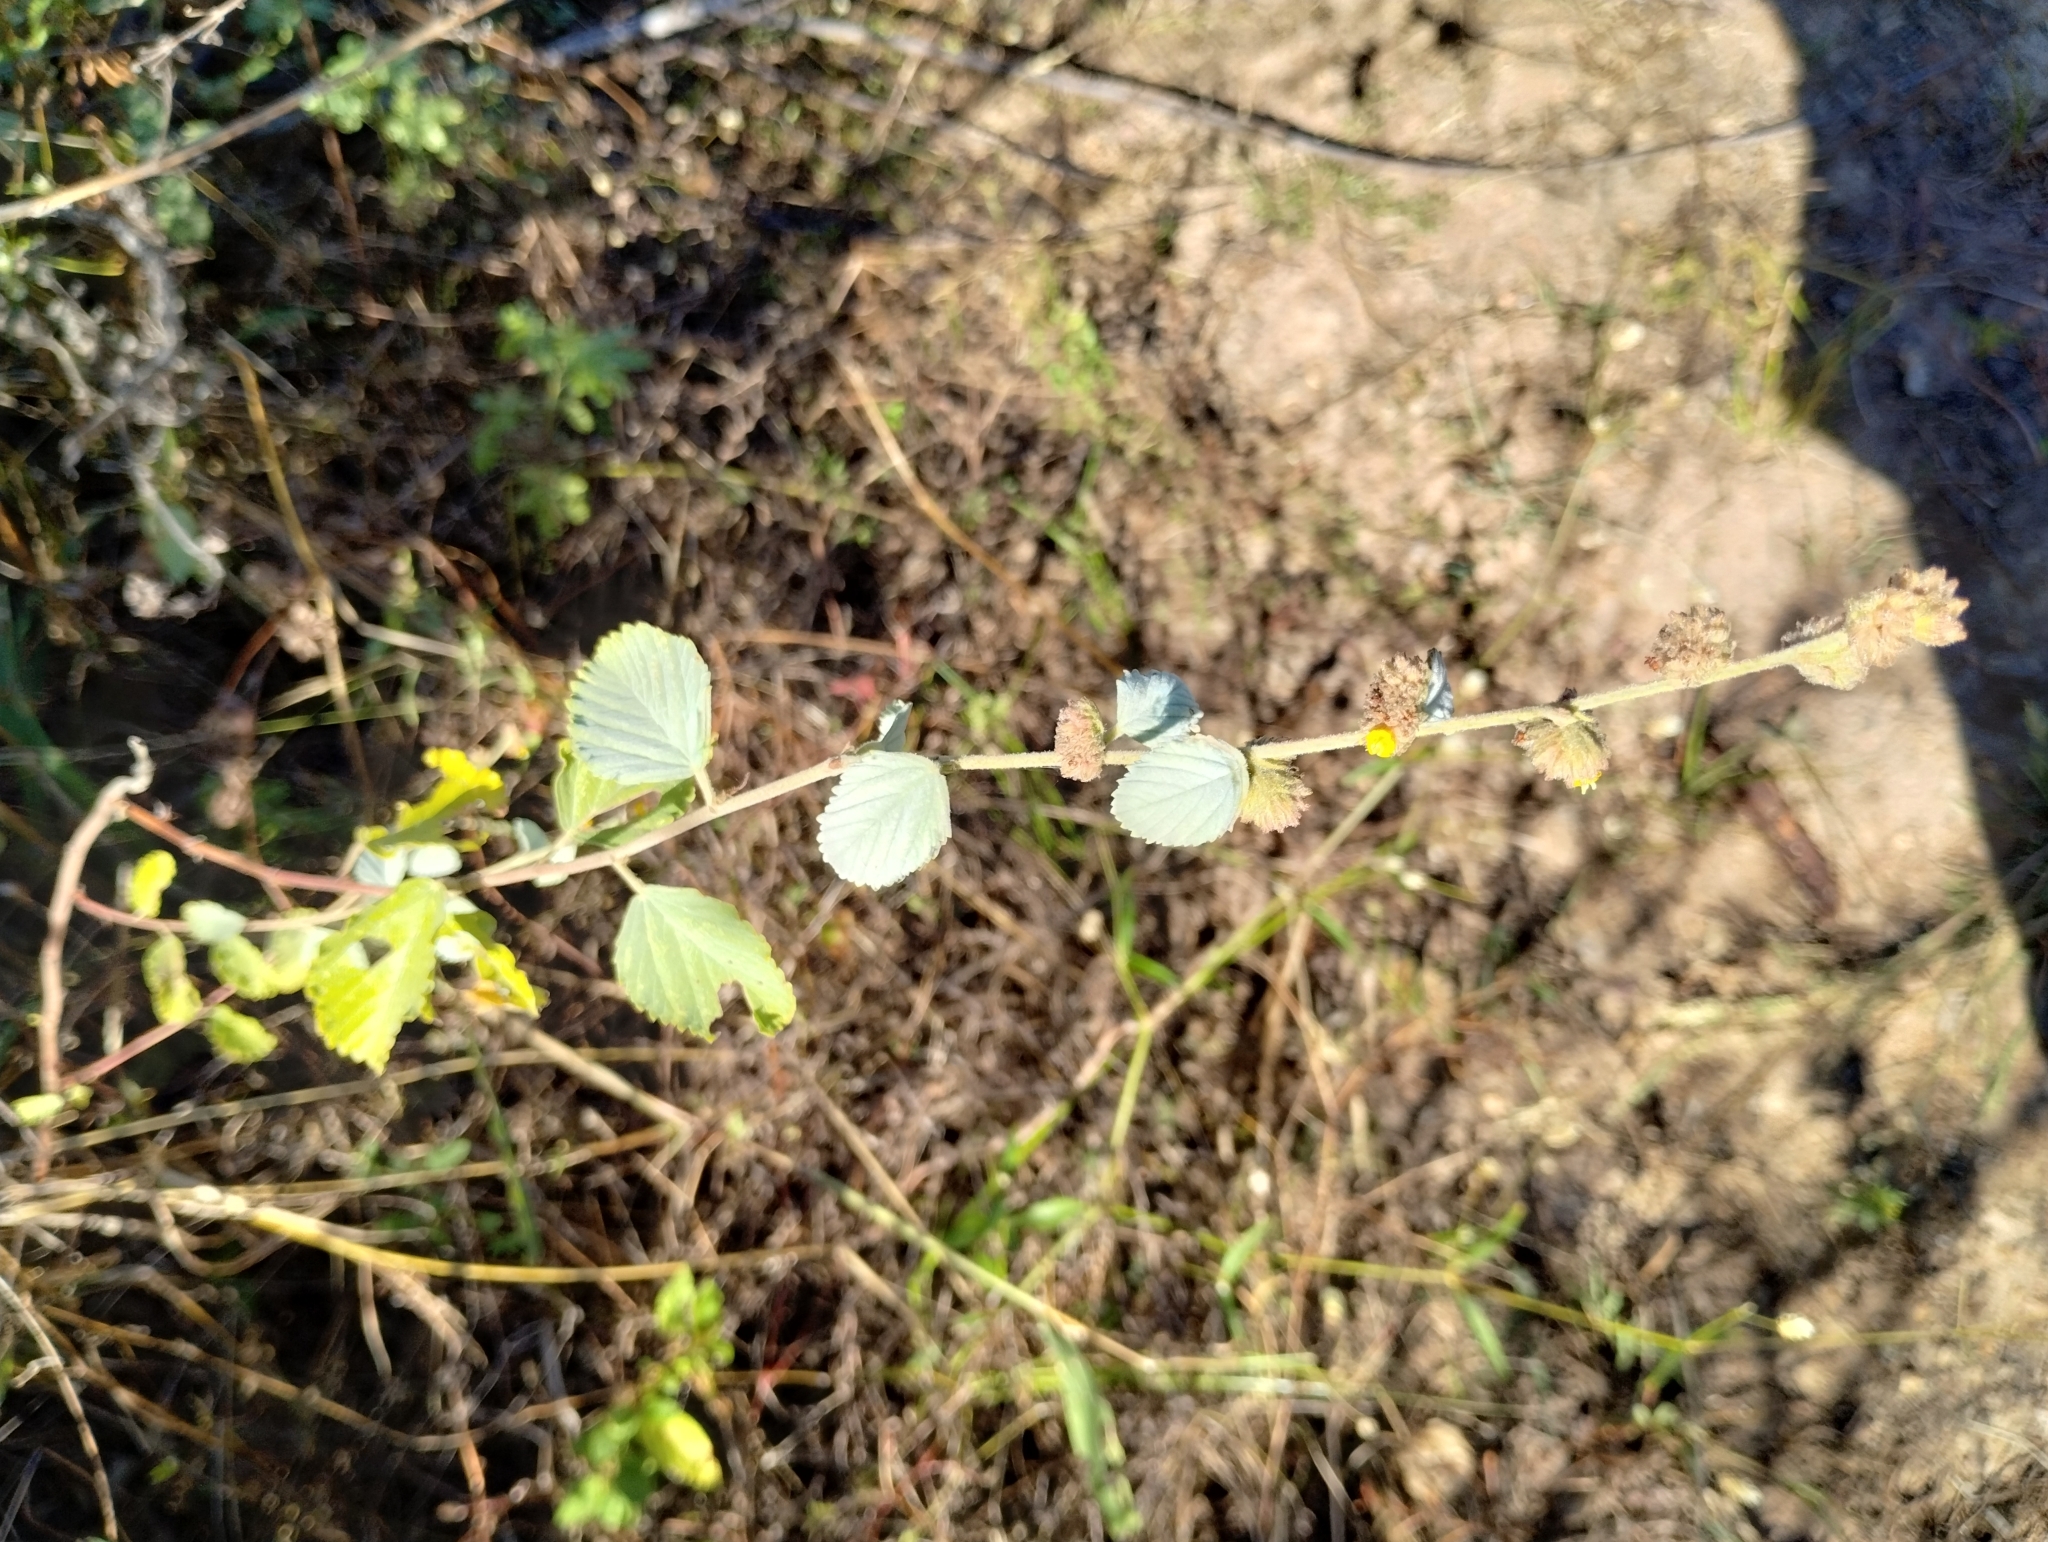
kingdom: Plantae
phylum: Tracheophyta
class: Magnoliopsida
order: Malvales
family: Malvaceae
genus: Waltheria
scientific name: Waltheria rotundifolia
